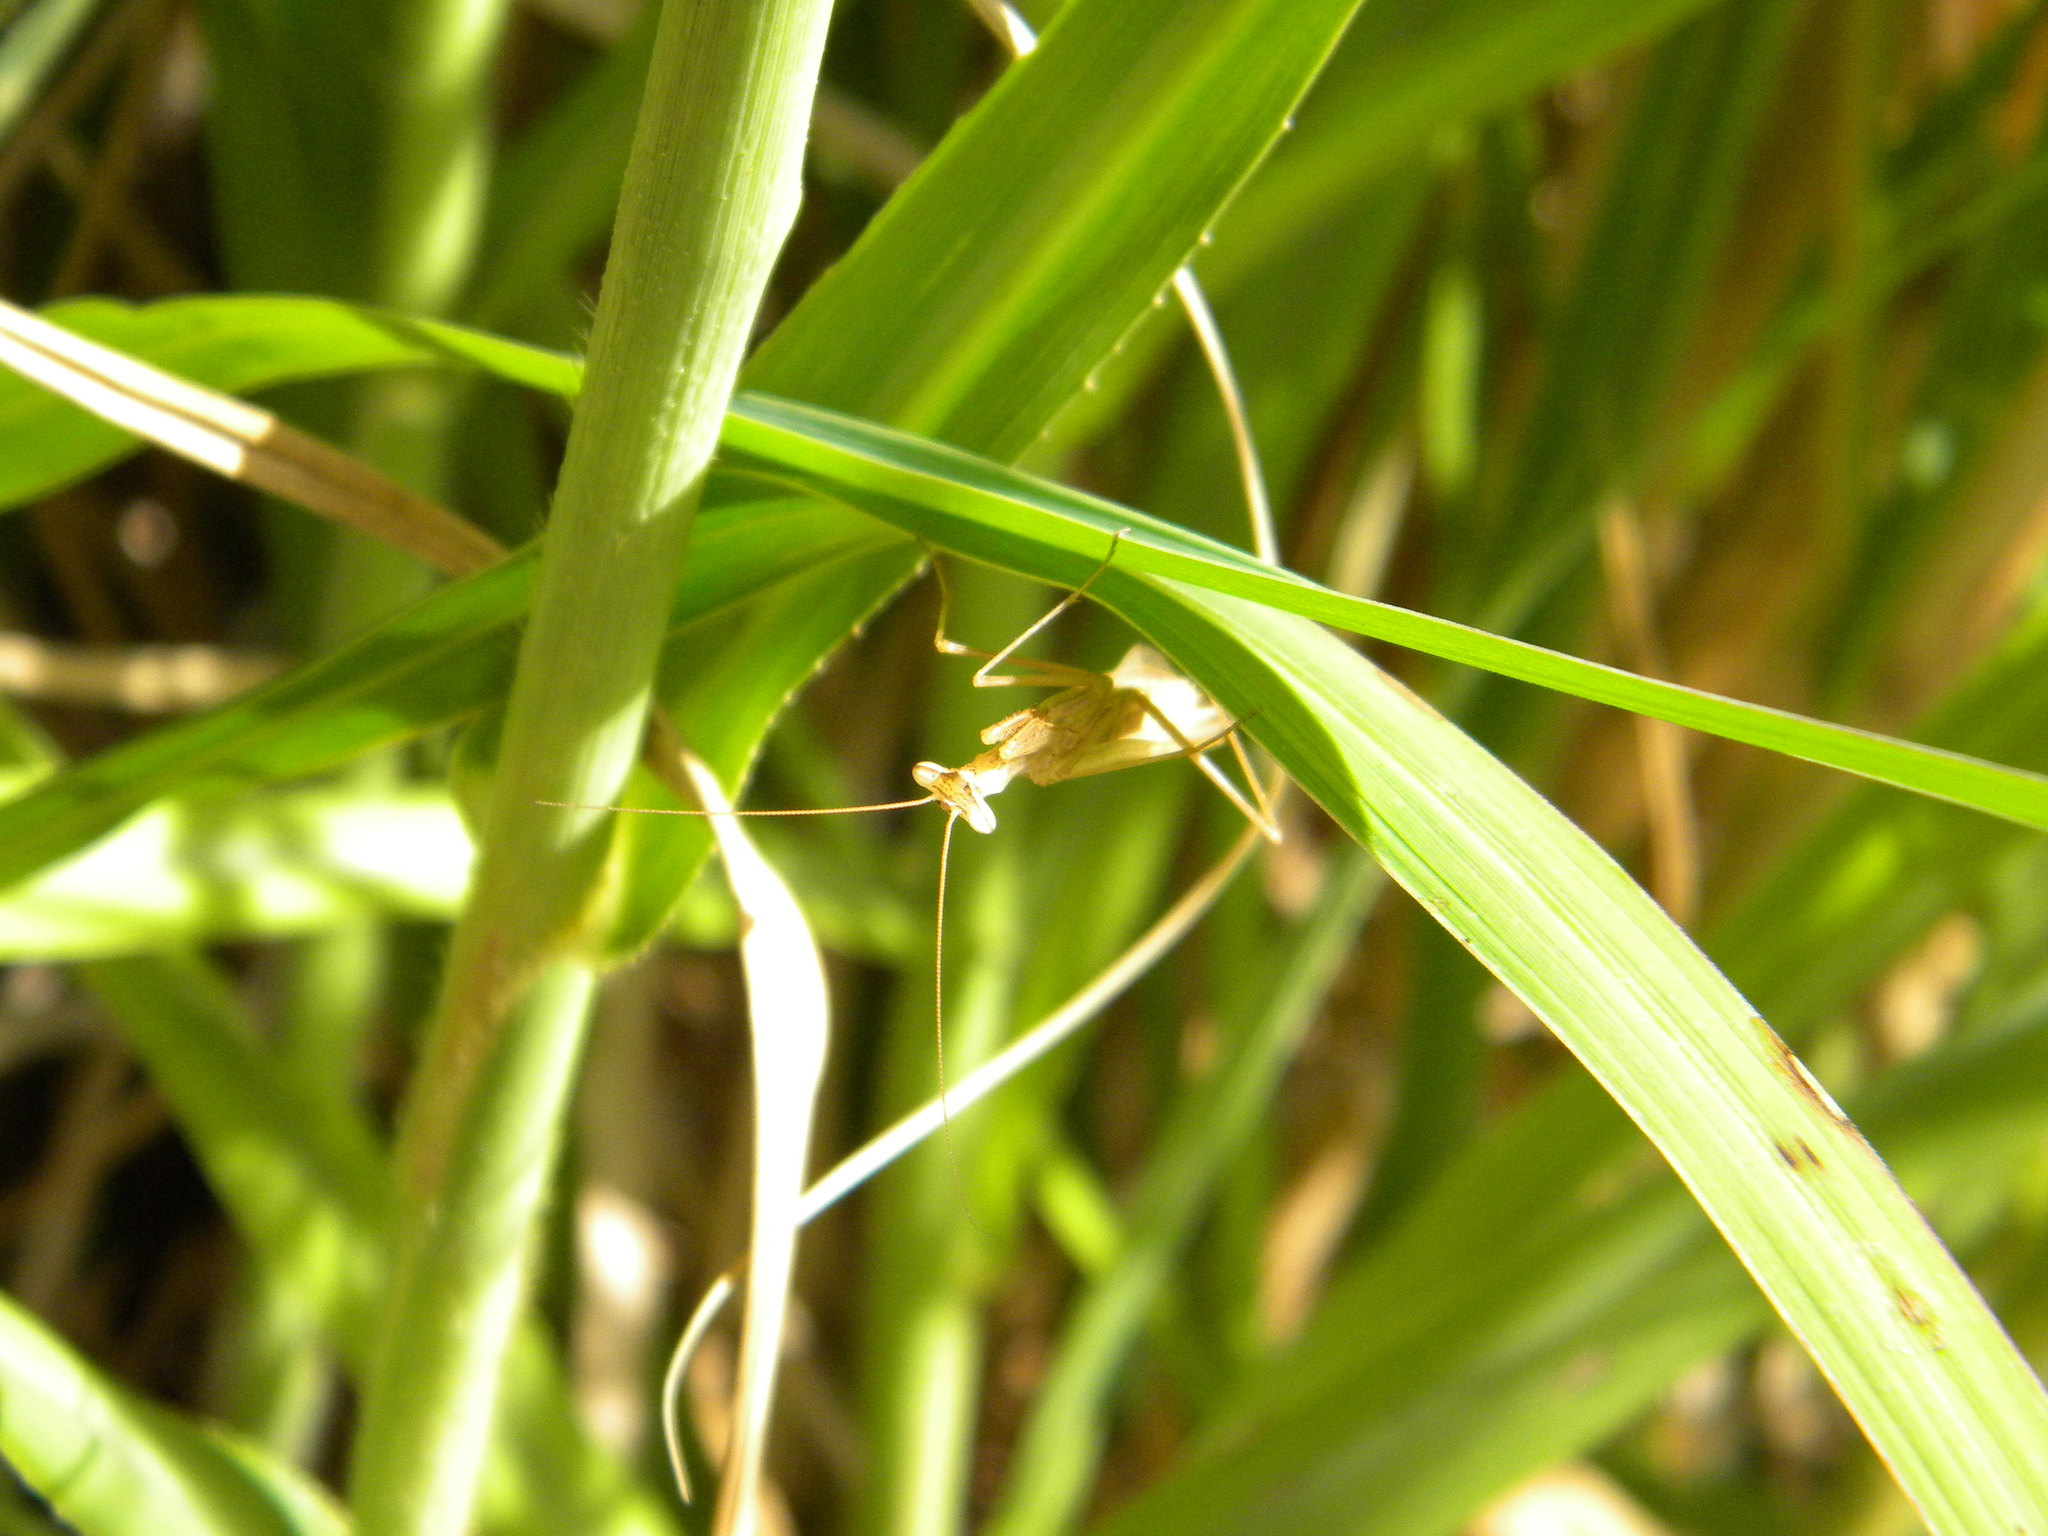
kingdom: Animalia
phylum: Arthropoda
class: Insecta
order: Mantodea
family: Miomantidae
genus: Miomantis
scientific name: Miomantis caffra
